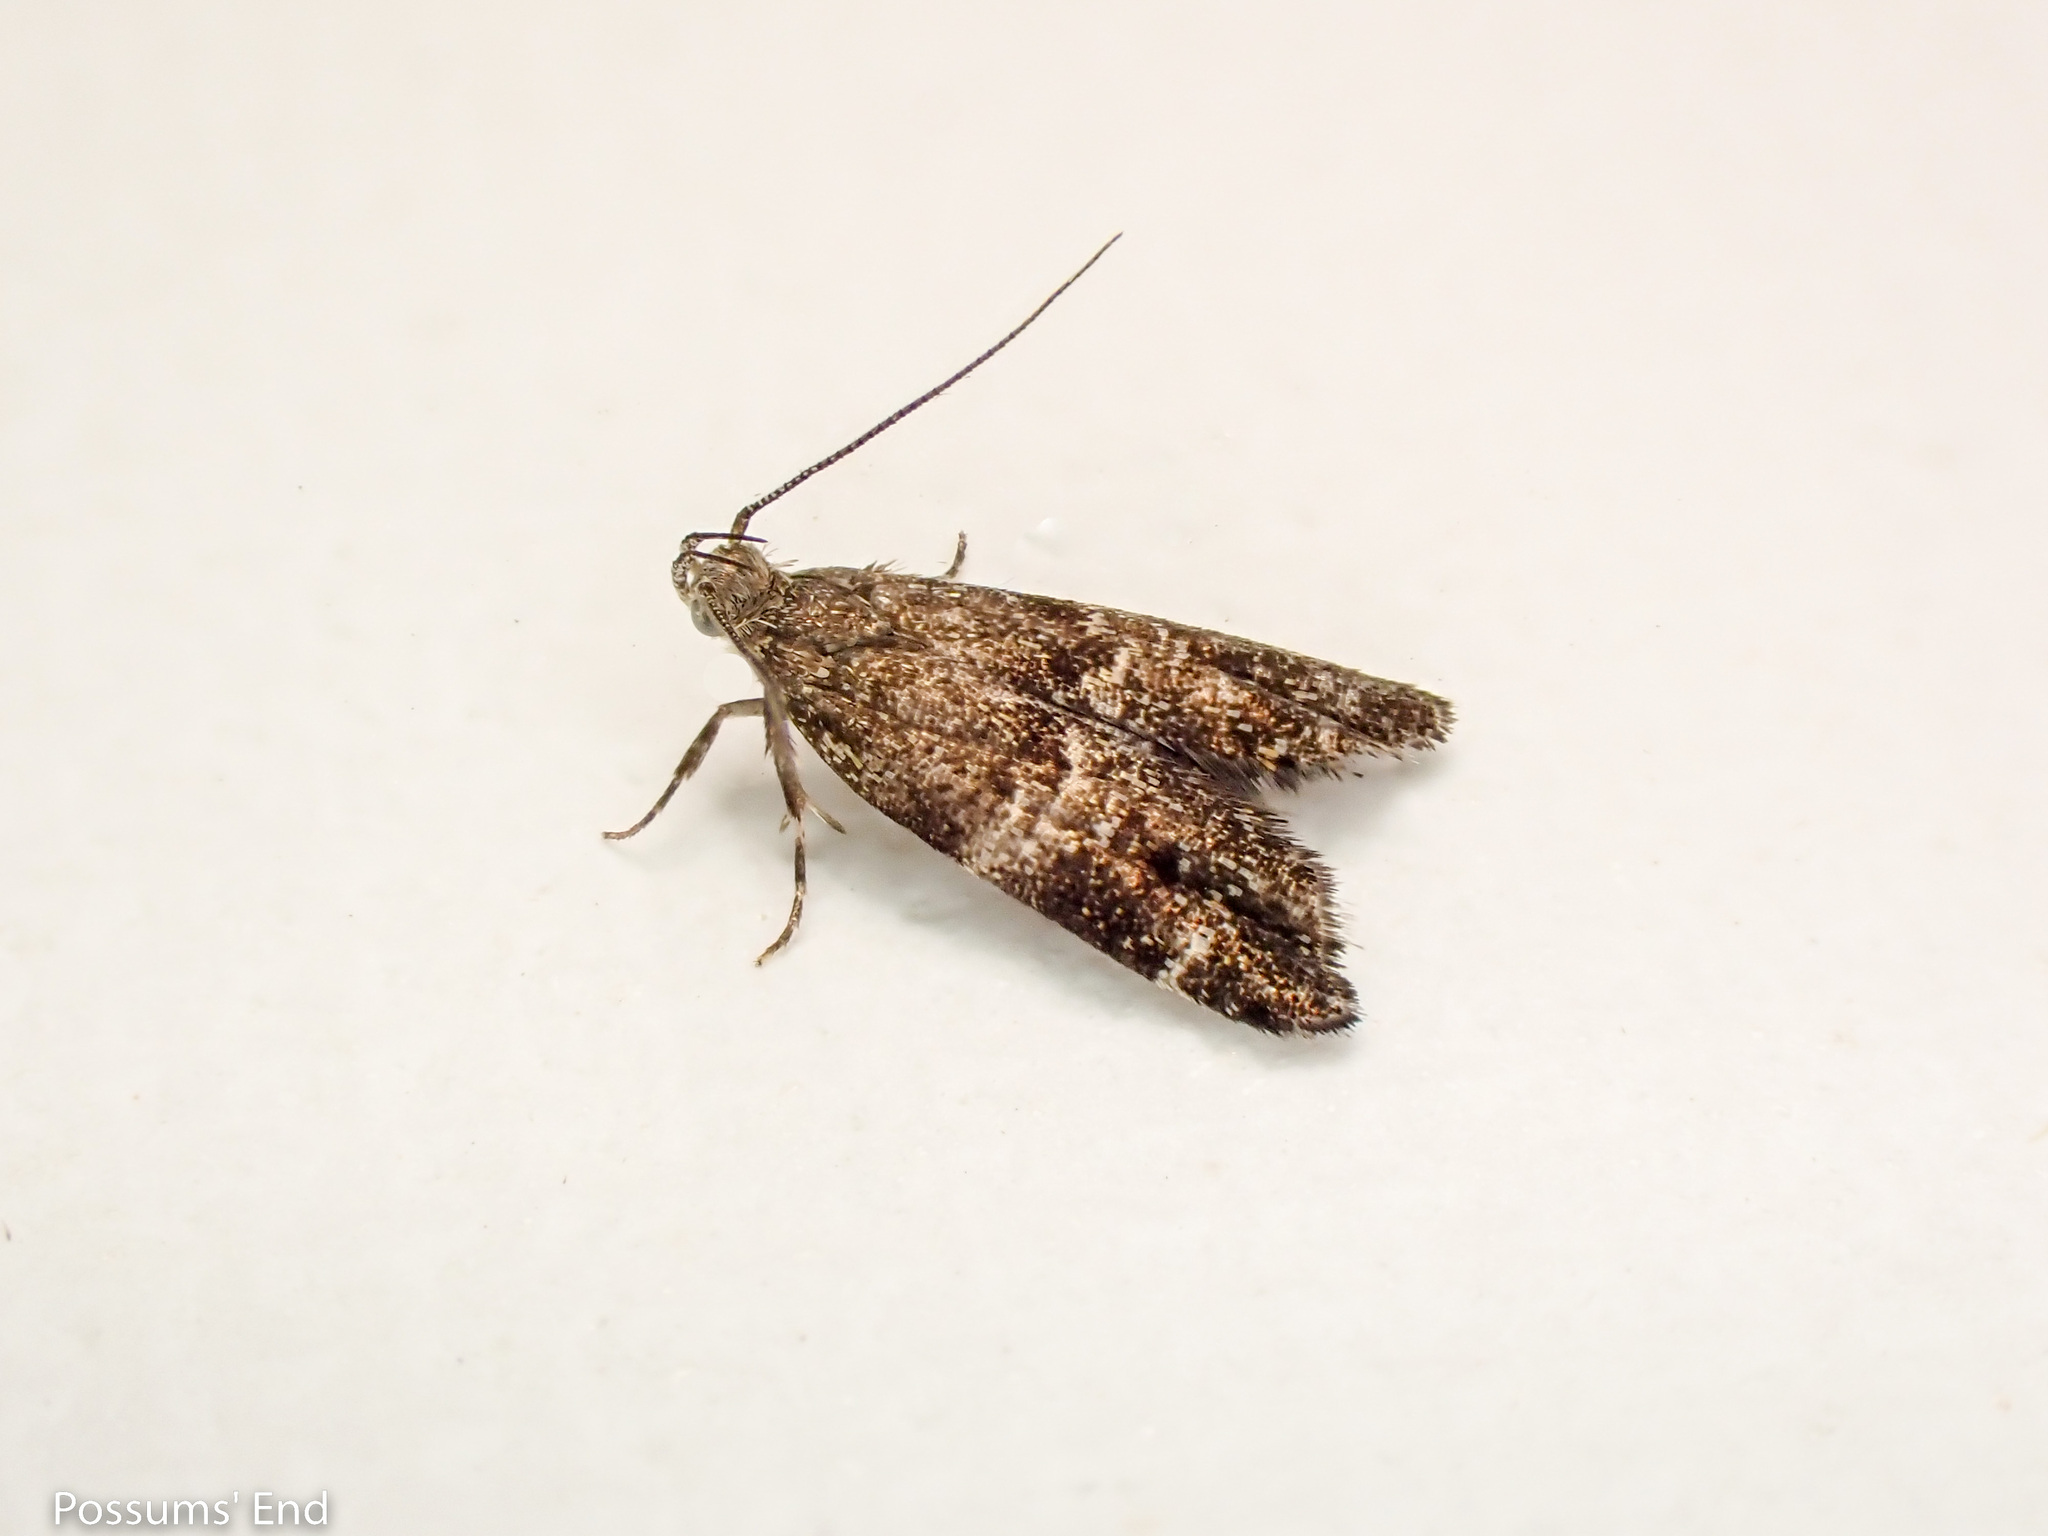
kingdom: Animalia
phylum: Arthropoda
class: Insecta
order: Lepidoptera
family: Oecophoridae
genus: Gymnobathra
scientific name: Gymnobathra omphalota
